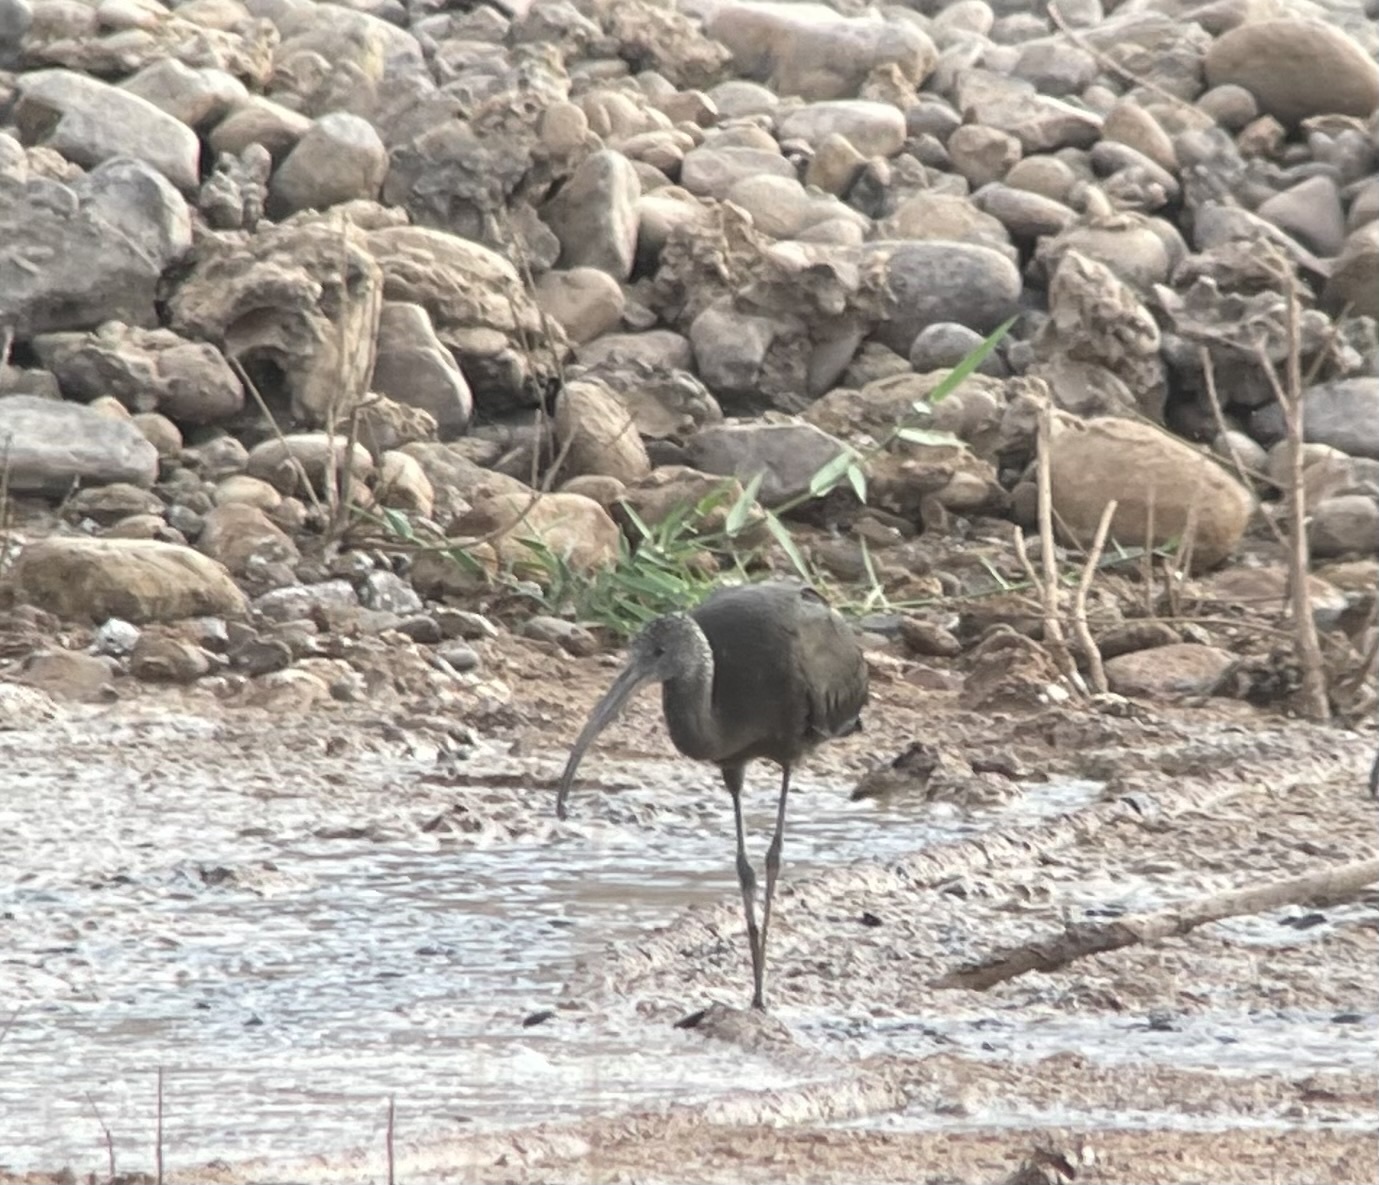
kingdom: Animalia
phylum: Chordata
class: Aves
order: Pelecaniformes
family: Threskiornithidae
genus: Plegadis
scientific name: Plegadis falcinellus
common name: Glossy ibis
